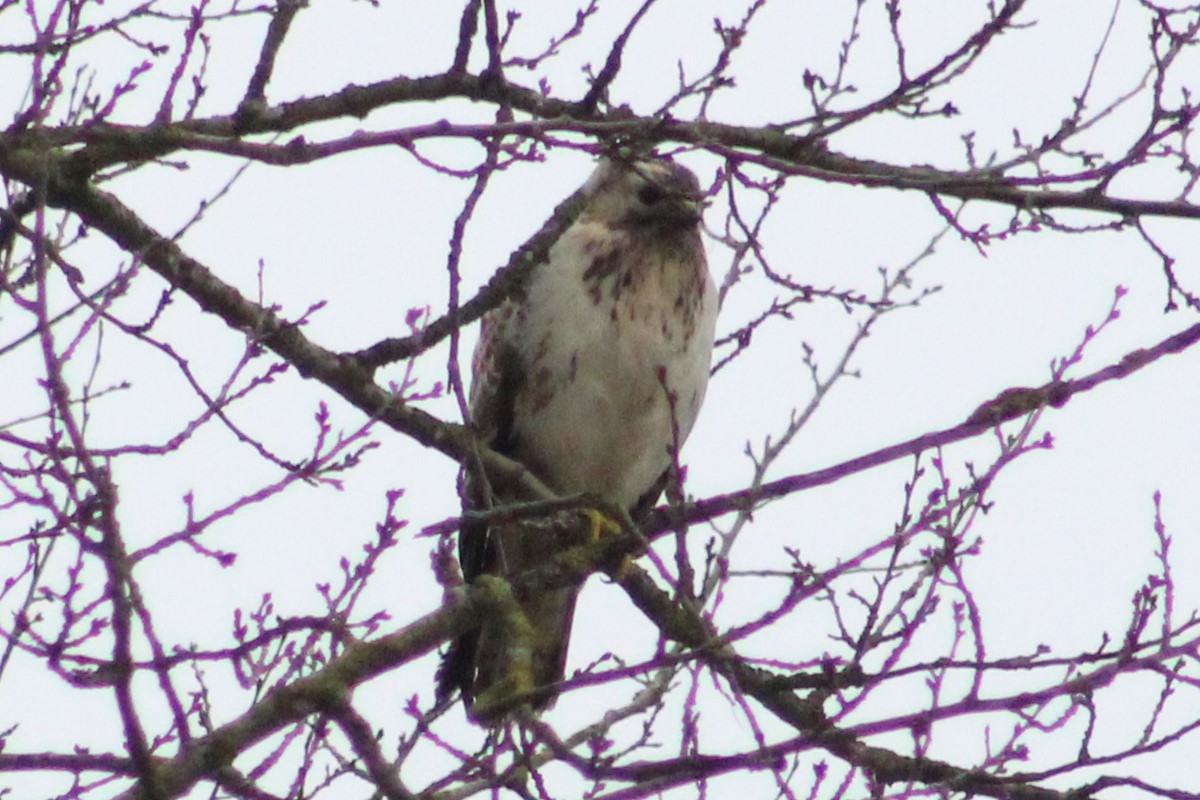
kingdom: Animalia
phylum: Chordata
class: Aves
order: Accipitriformes
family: Accipitridae
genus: Buteo
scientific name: Buteo buteo
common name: Common buzzard
